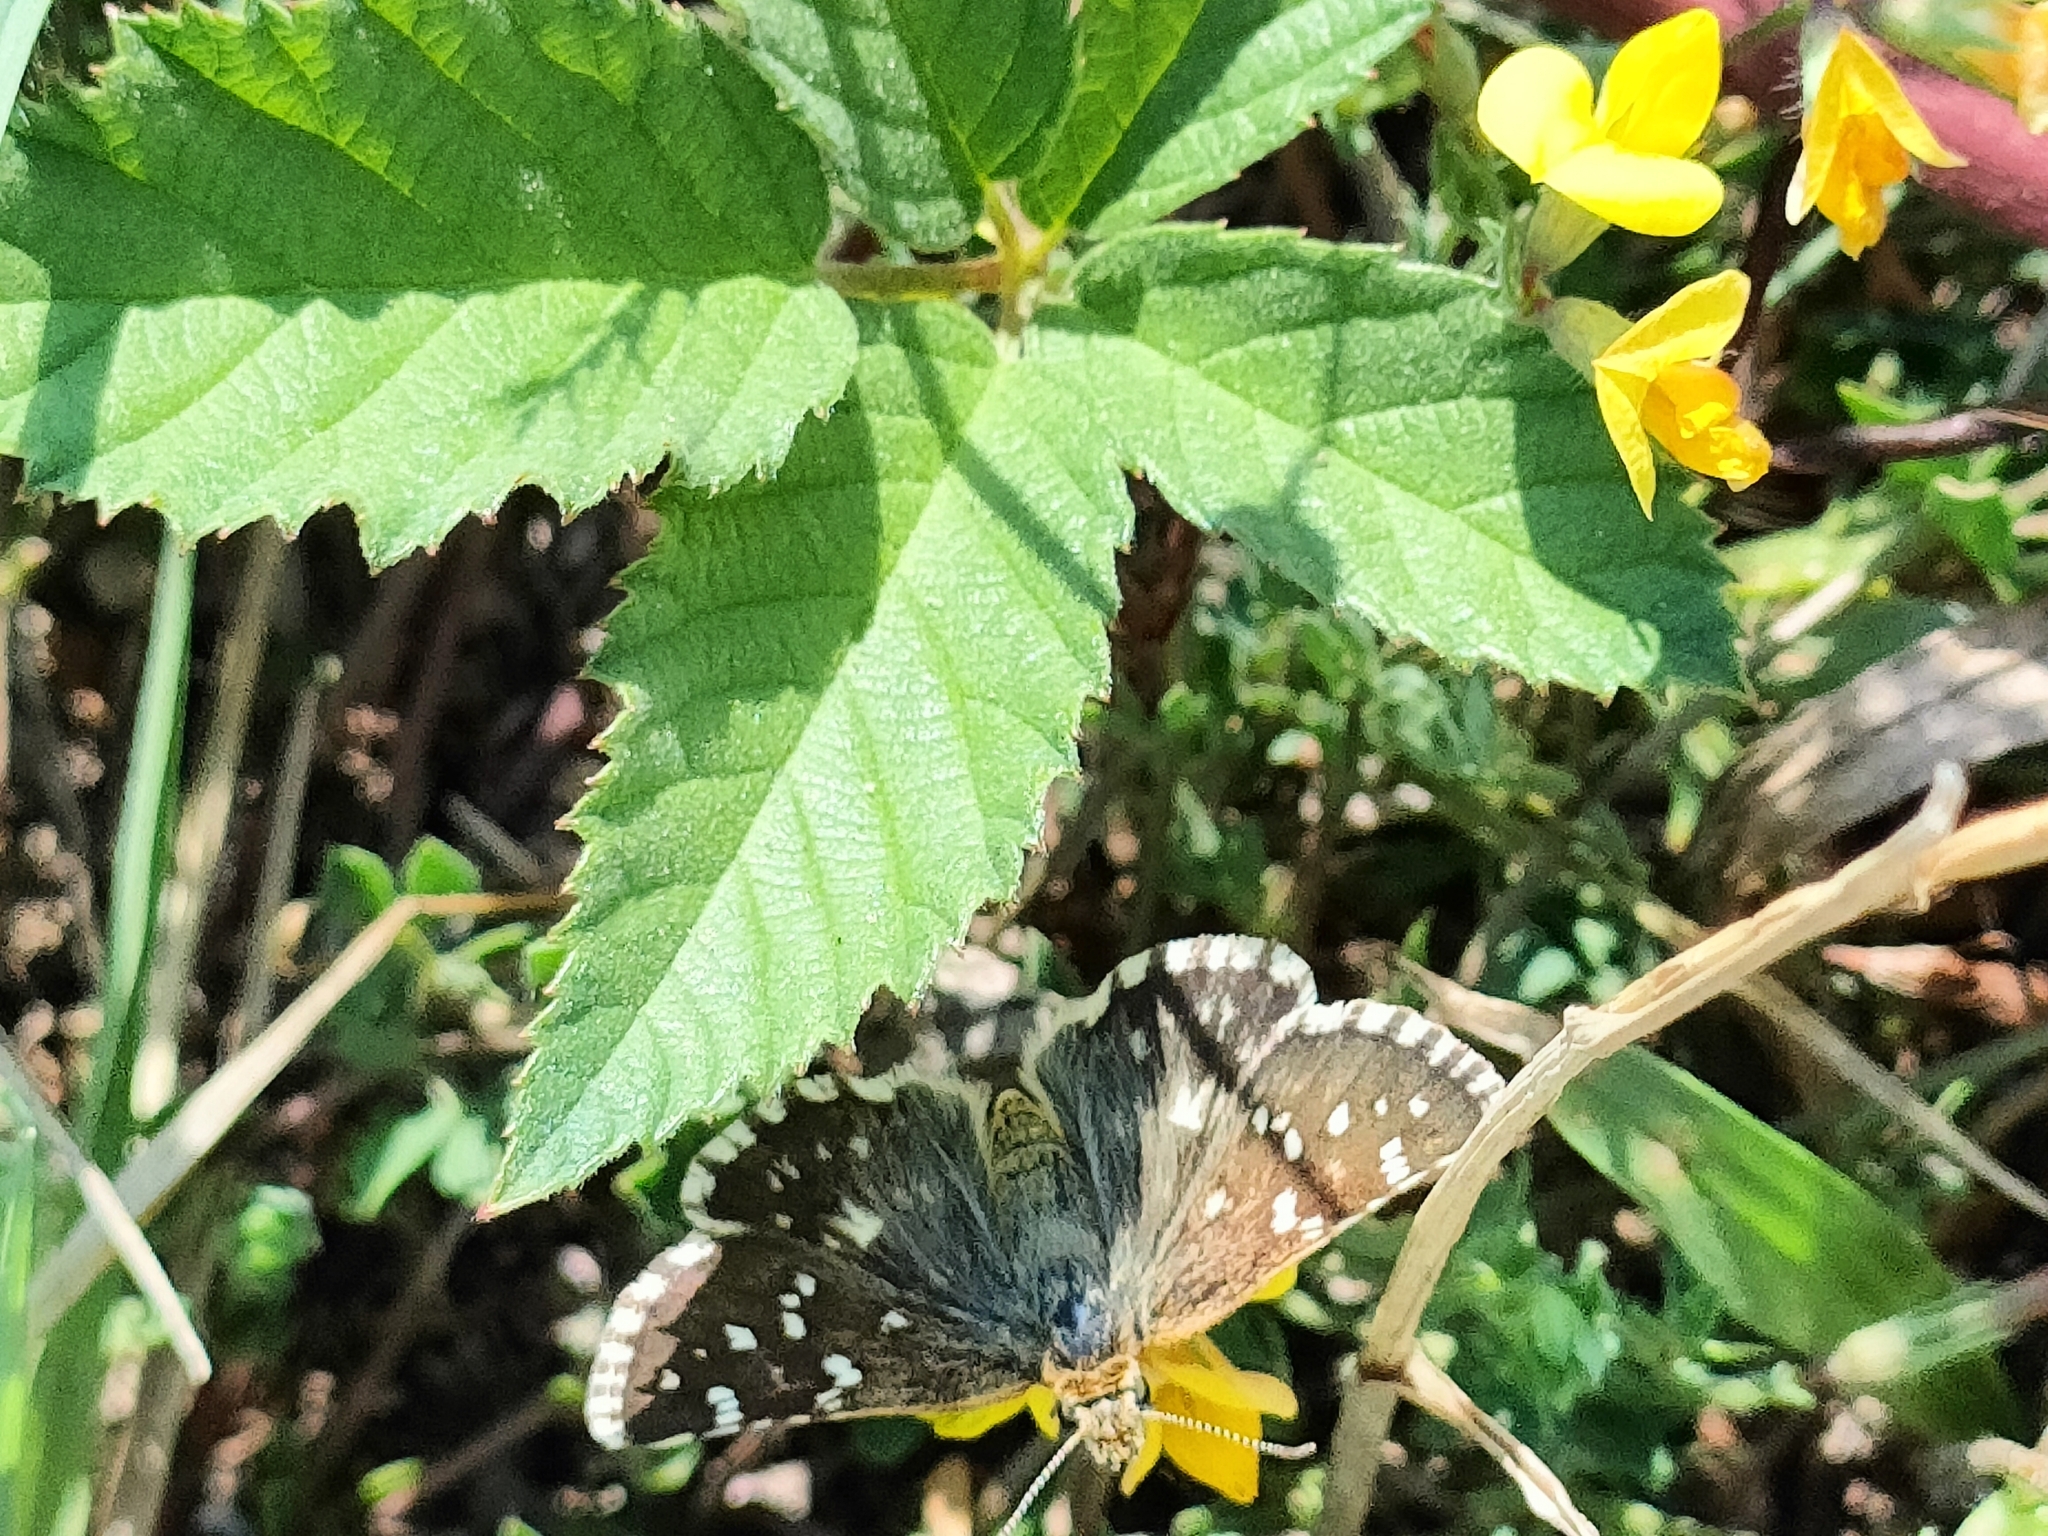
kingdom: Animalia
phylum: Arthropoda
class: Insecta
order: Lepidoptera
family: Hesperiidae
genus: Pyrgus
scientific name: Pyrgus malvoides
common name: Southern grizzled skipper
